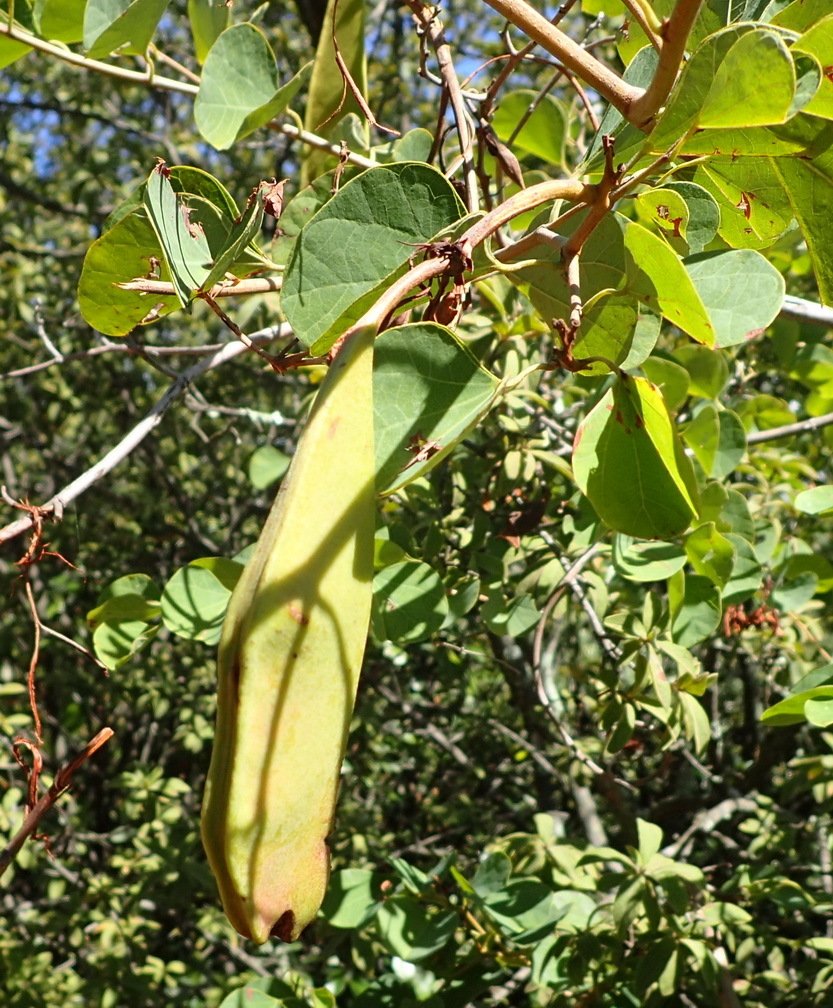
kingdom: Plantae
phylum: Tracheophyta
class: Magnoliopsida
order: Fabales
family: Fabaceae
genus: Bauhinia
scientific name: Bauhinia galpinii
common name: African plume
